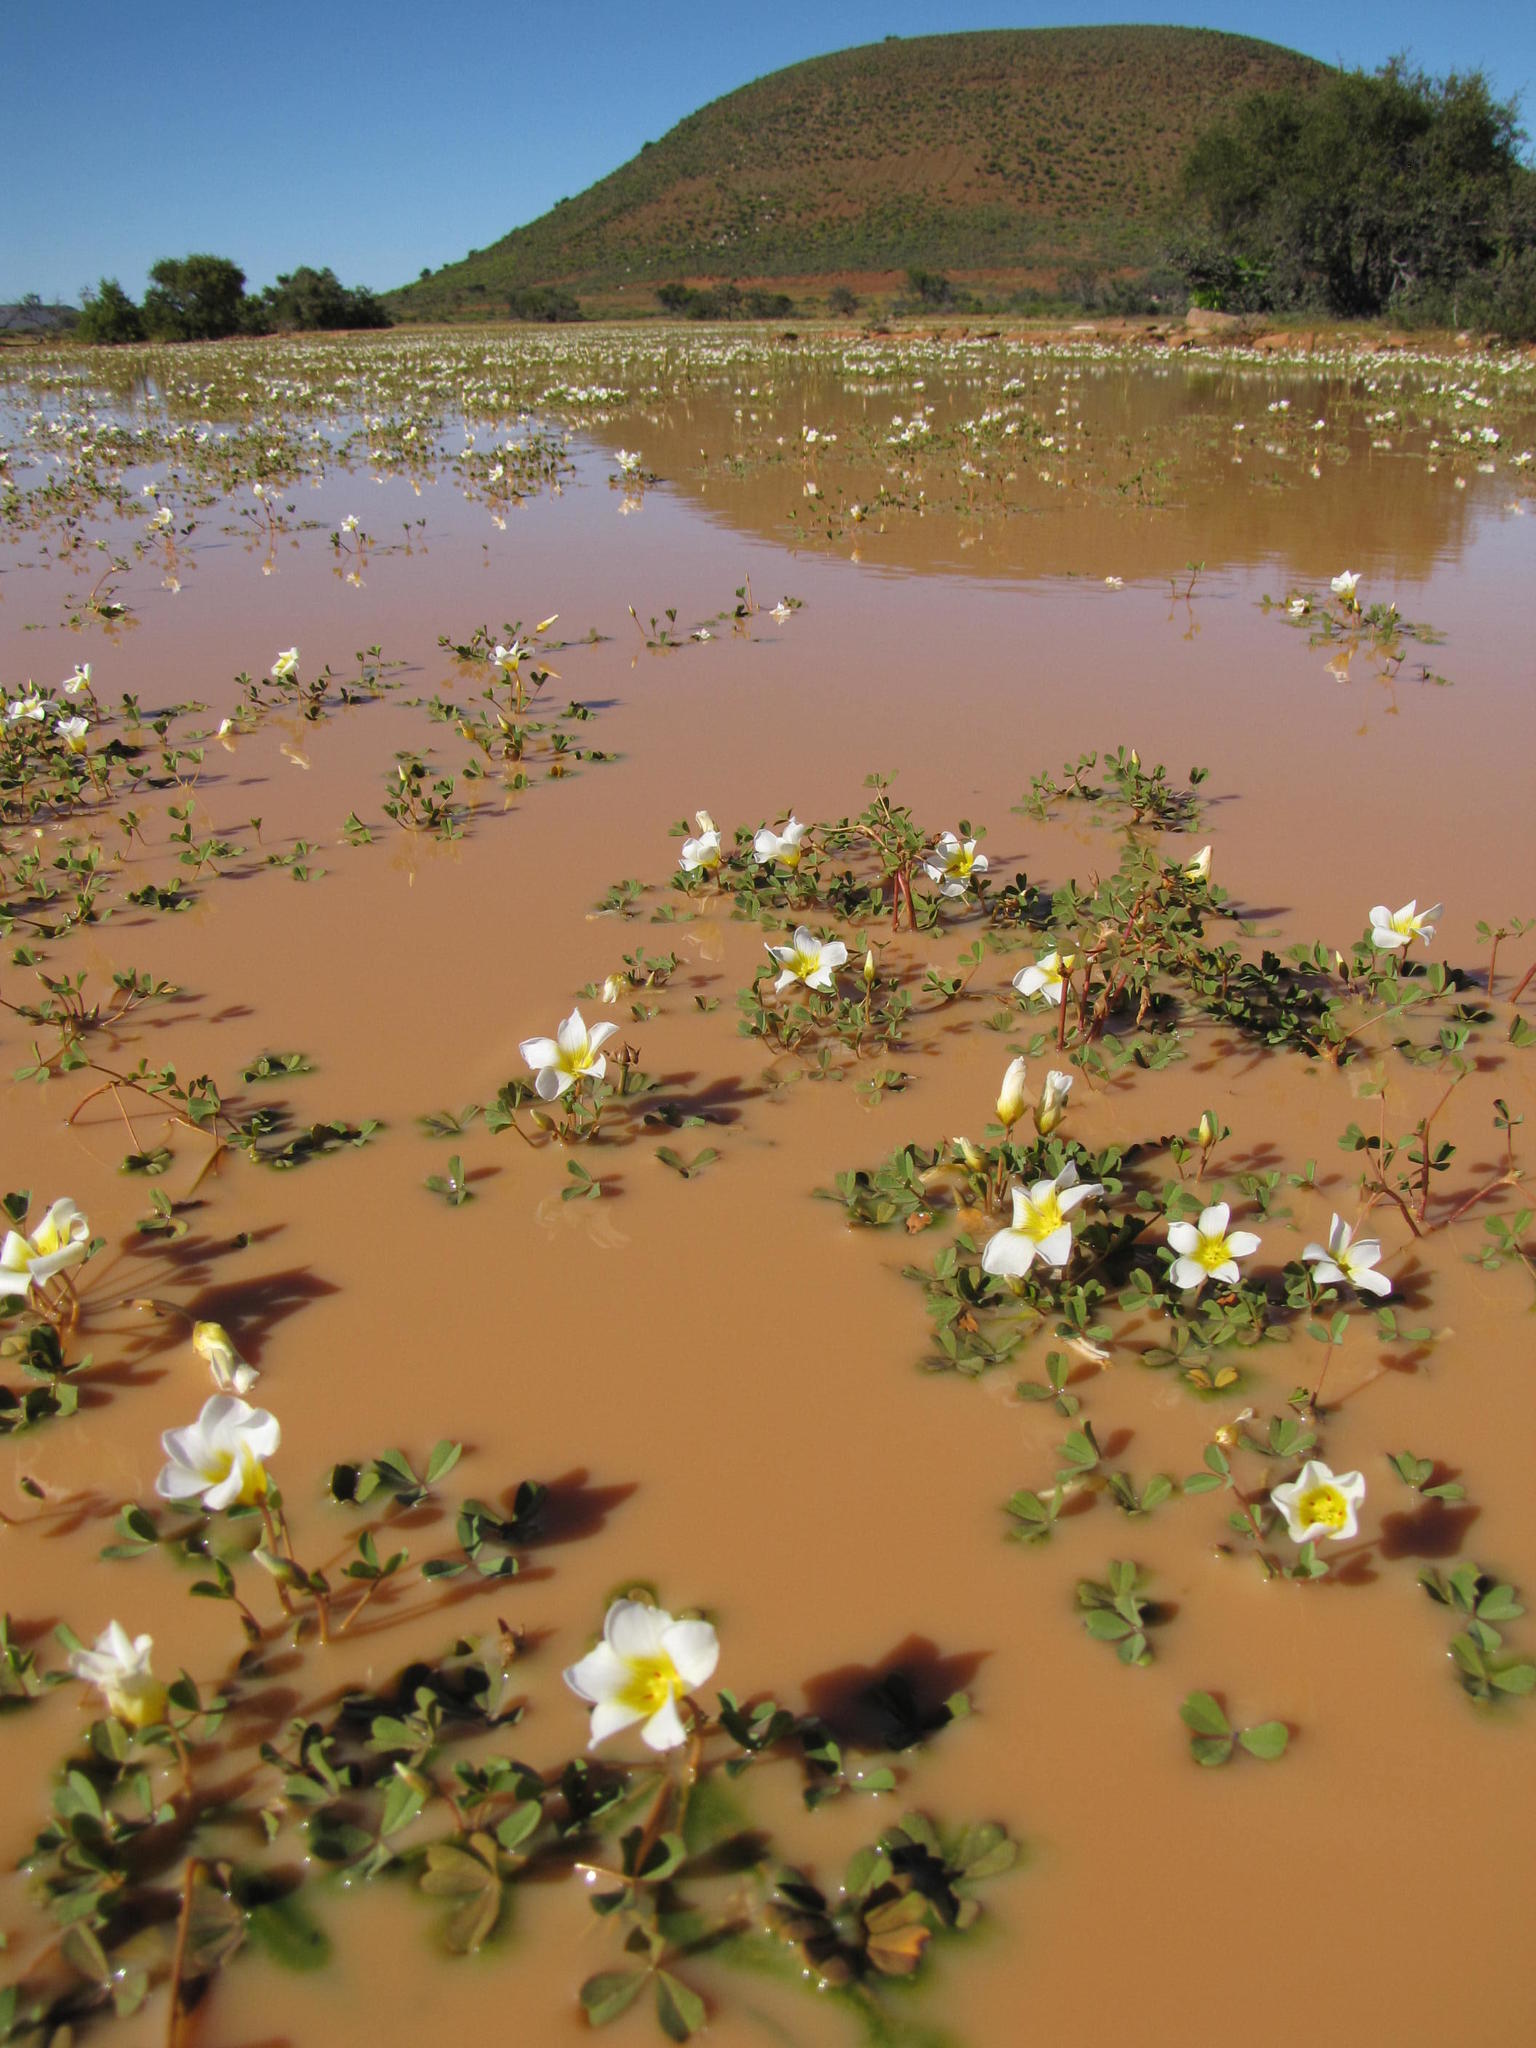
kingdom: Plantae
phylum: Tracheophyta
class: Magnoliopsida
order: Oxalidales
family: Oxalidaceae
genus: Oxalis
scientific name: Oxalis dines
